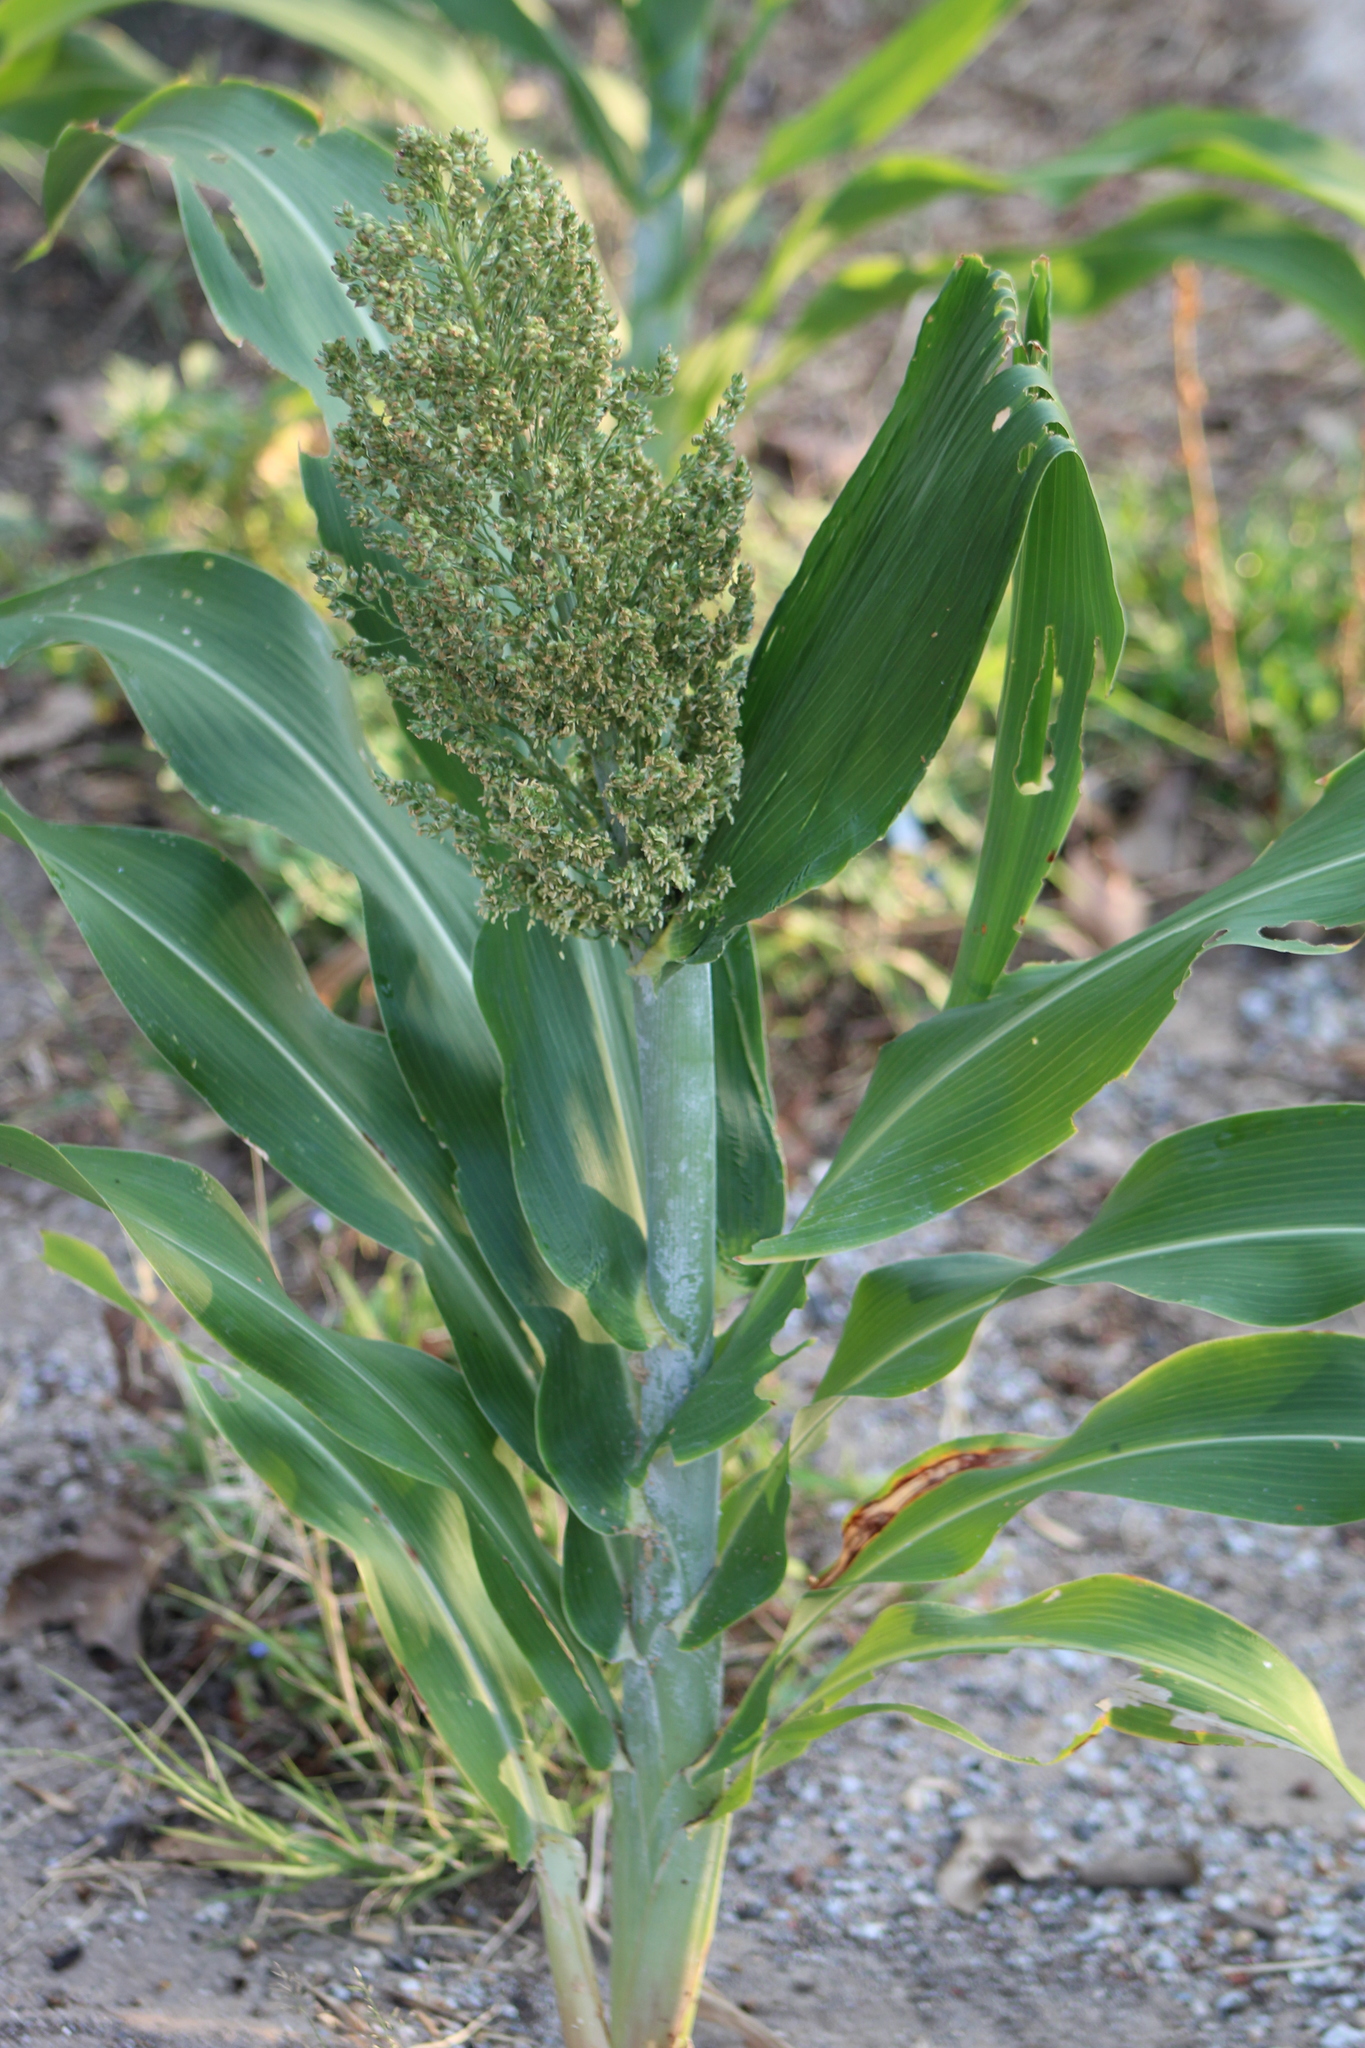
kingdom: Plantae
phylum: Tracheophyta
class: Liliopsida
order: Poales
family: Poaceae
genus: Sorghum
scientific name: Sorghum bicolor
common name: Sorghum
